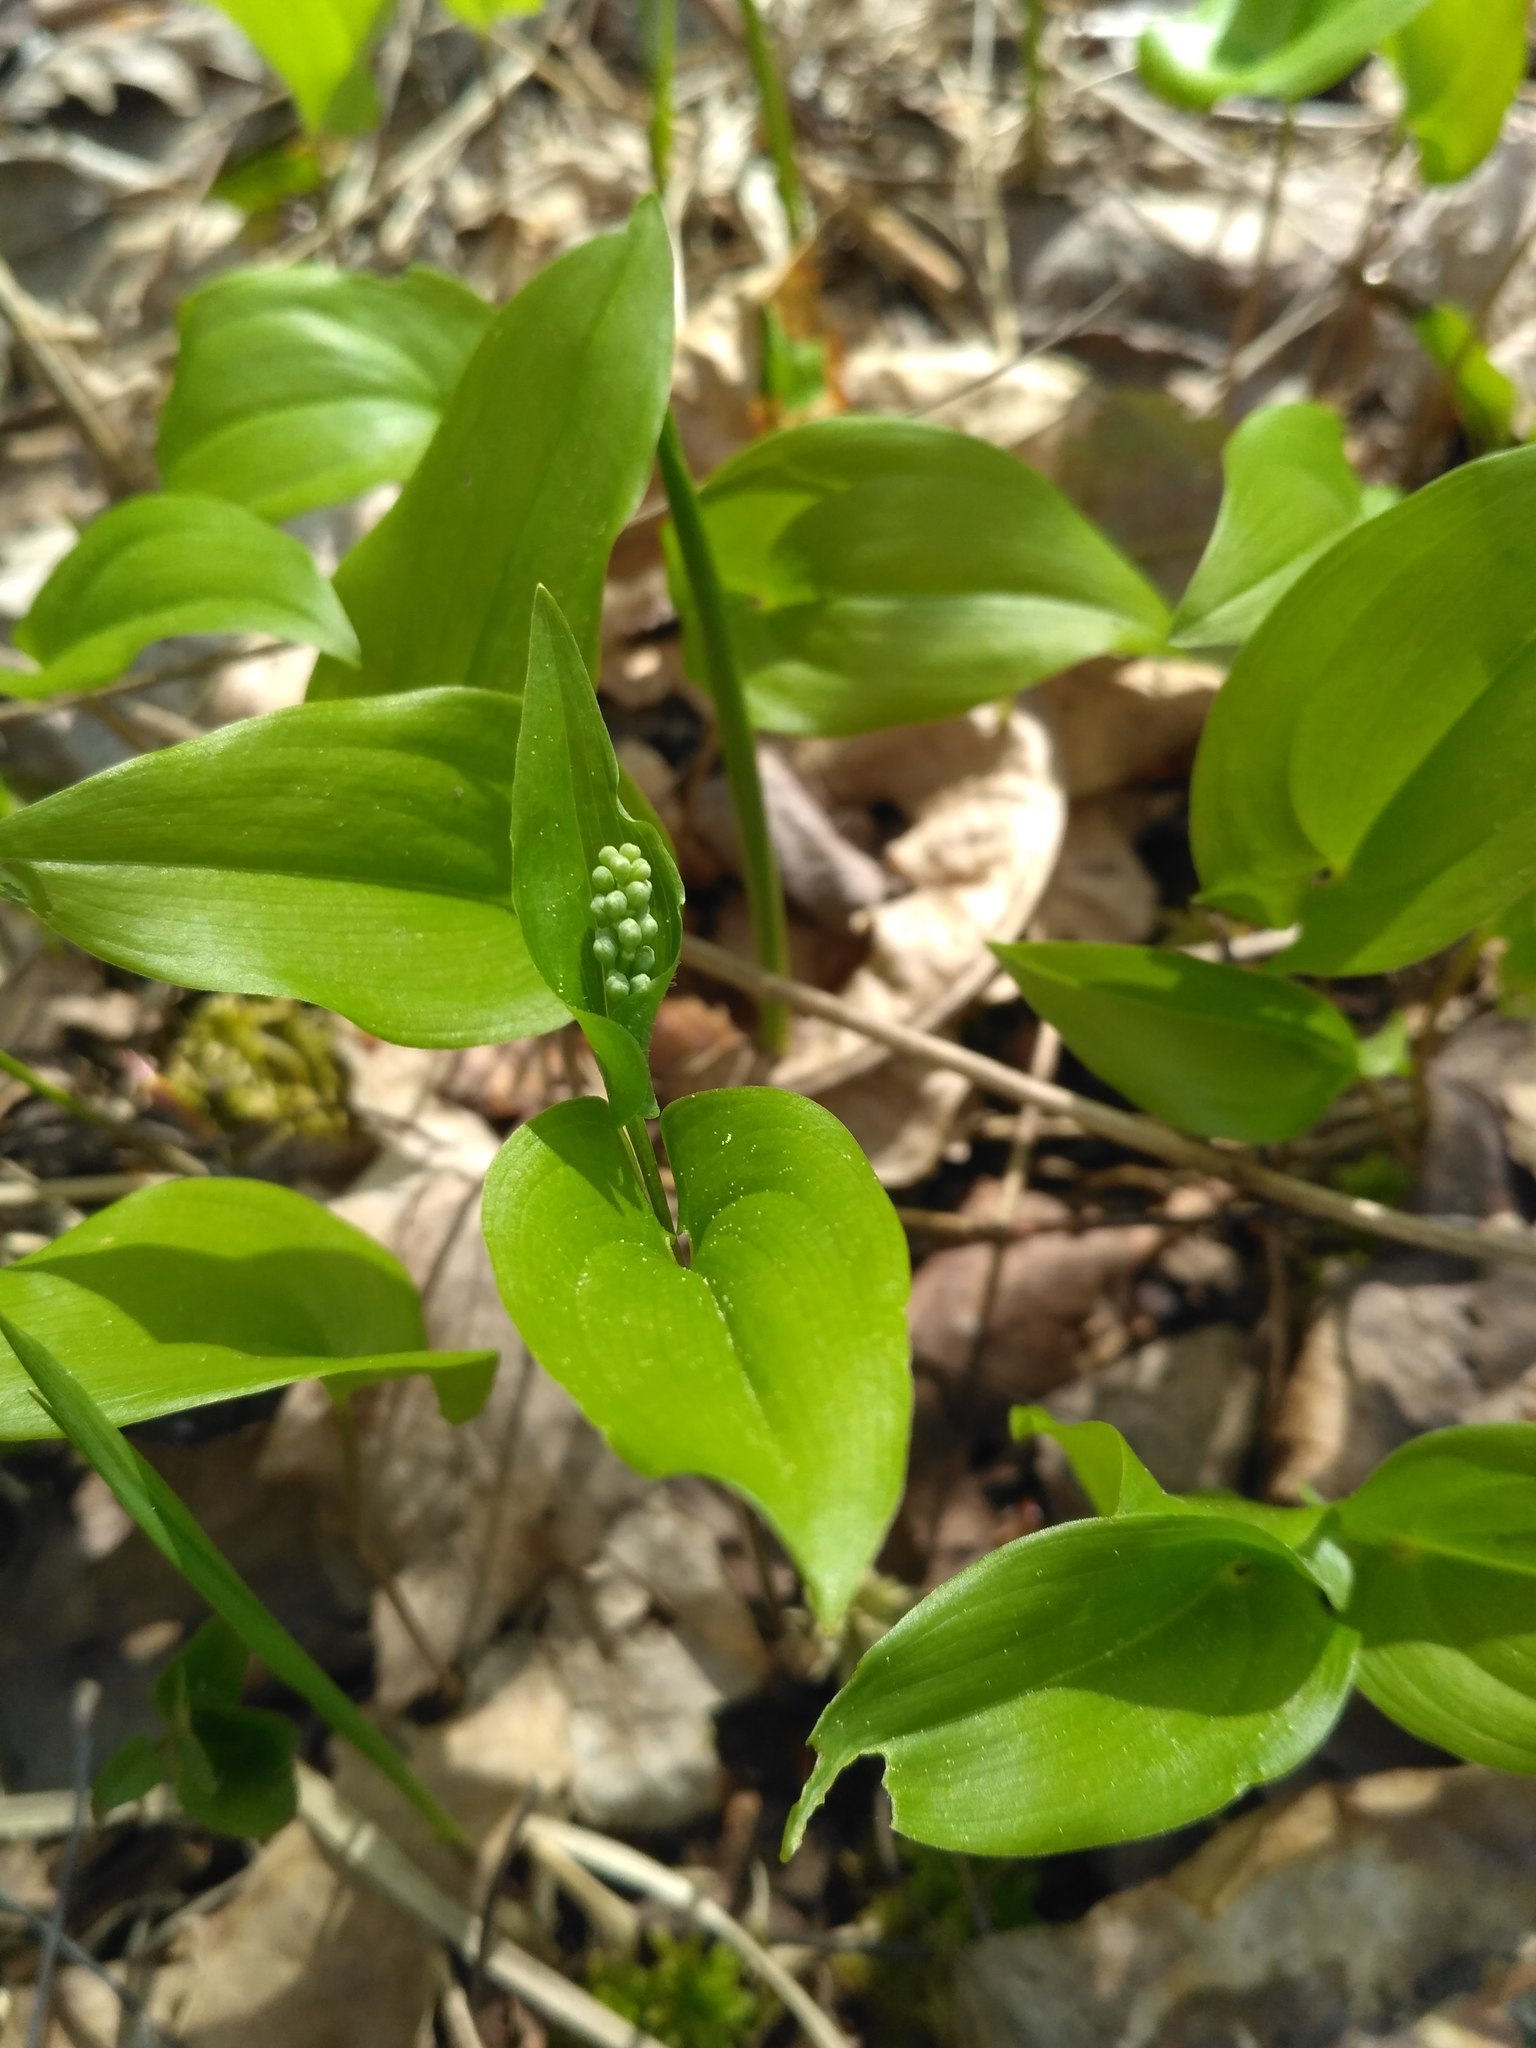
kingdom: Plantae
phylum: Tracheophyta
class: Liliopsida
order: Asparagales
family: Asparagaceae
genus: Maianthemum
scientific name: Maianthemum bifolium
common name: May lily
